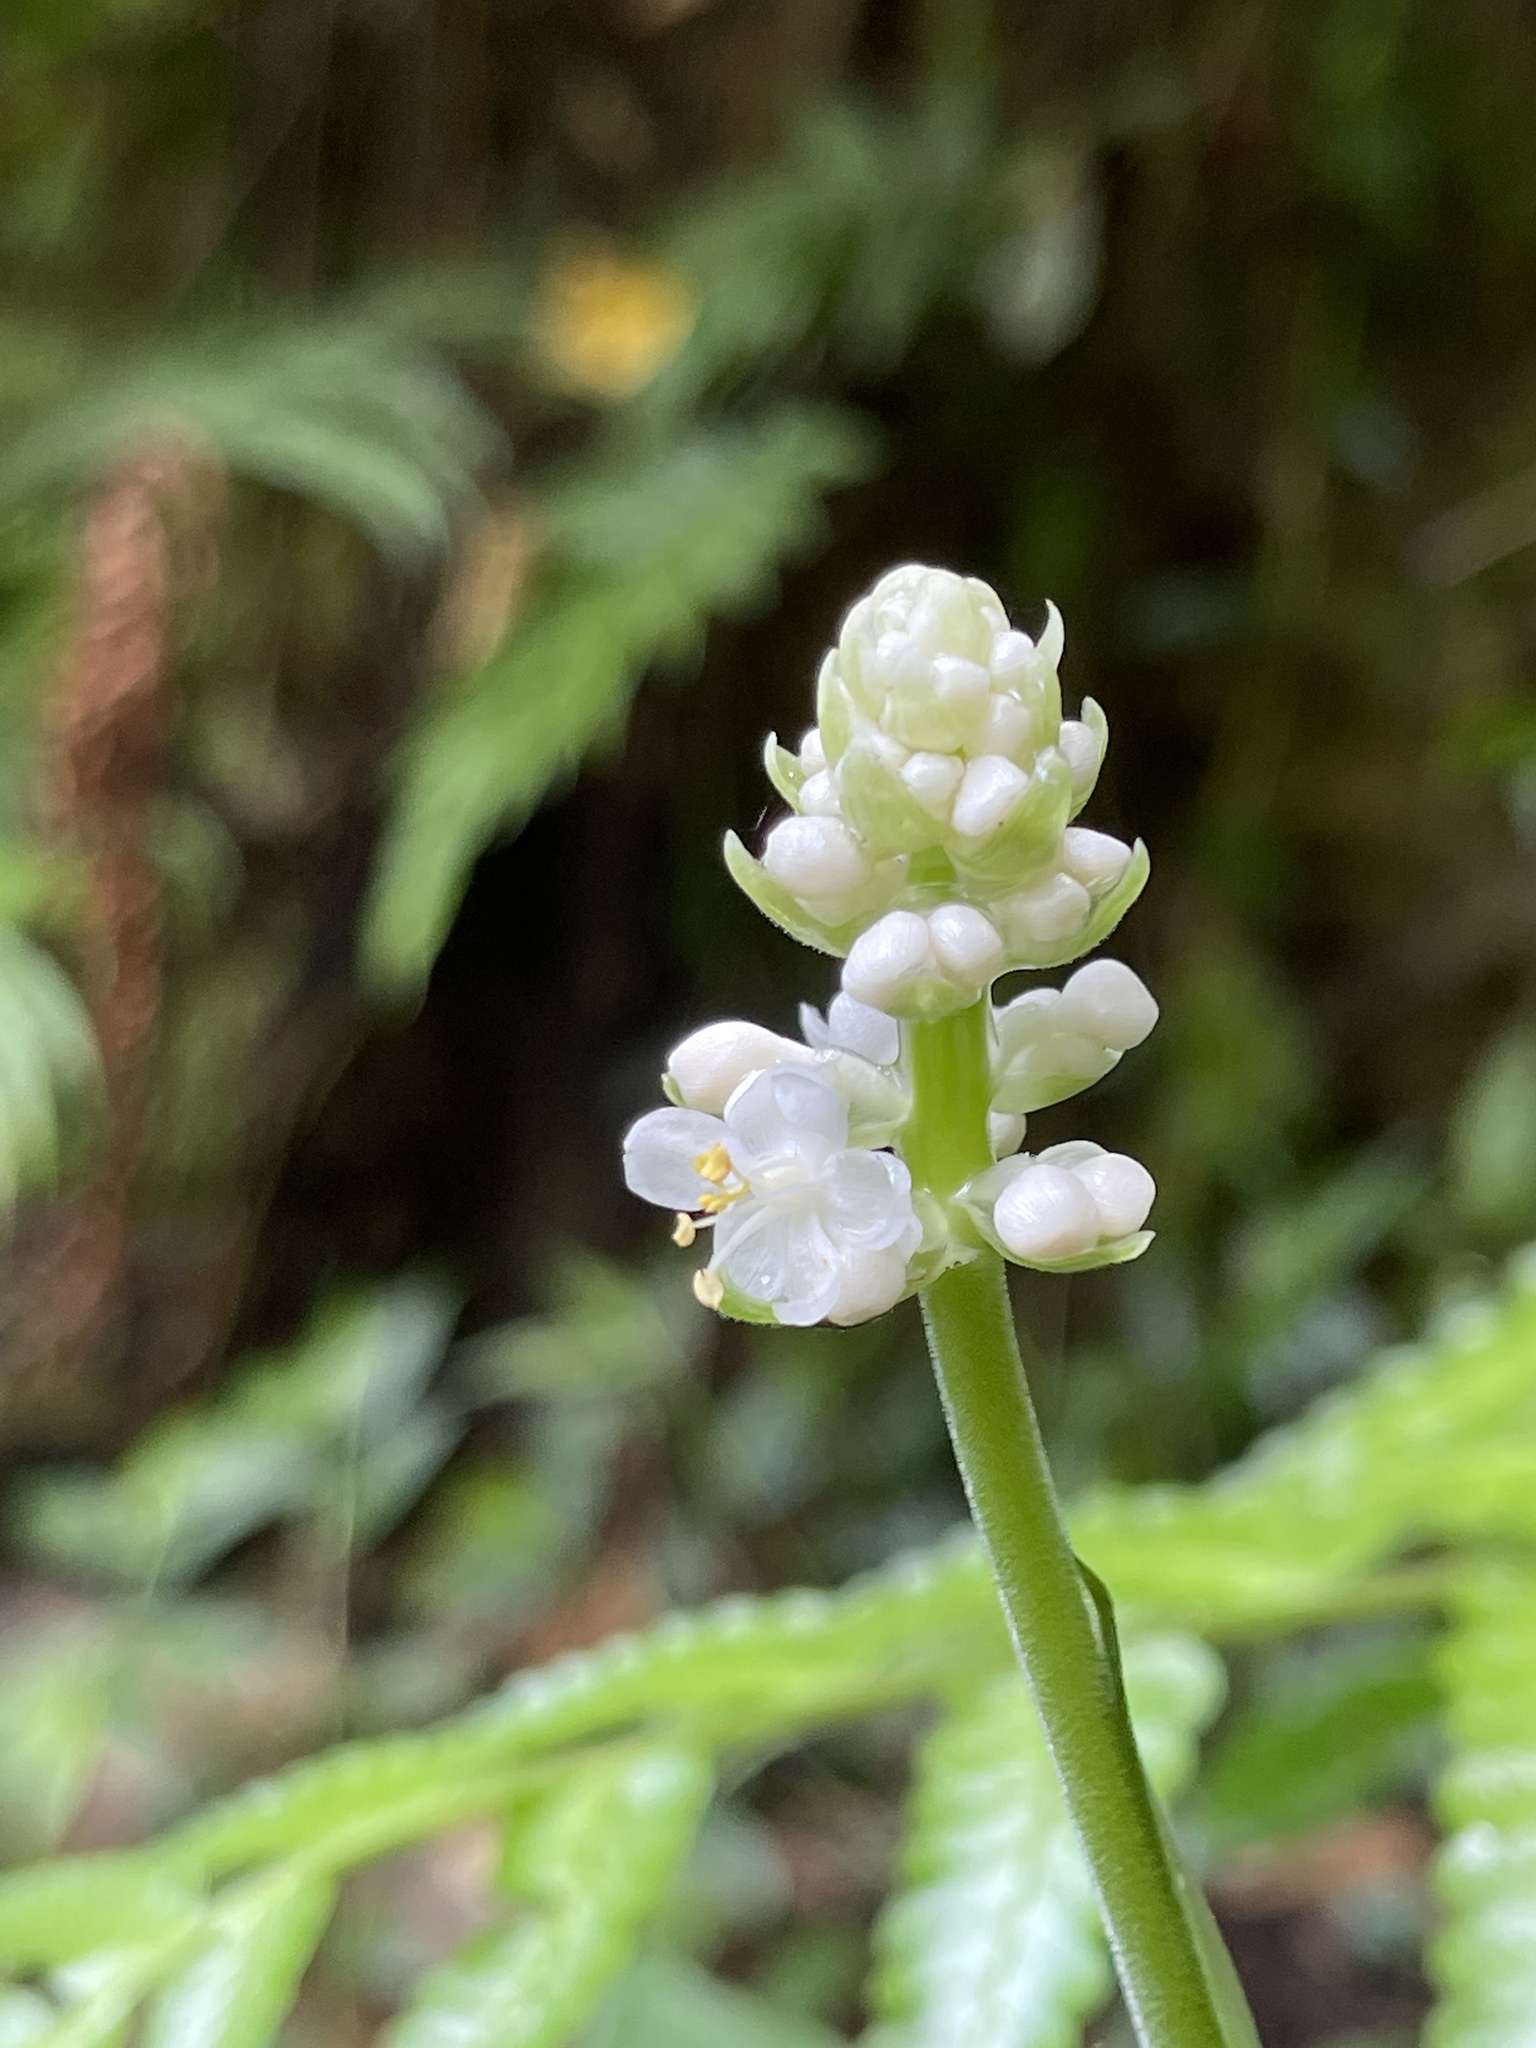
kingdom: Plantae
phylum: Tracheophyta
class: Liliopsida
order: Commelinales
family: Commelinaceae
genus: Pollia
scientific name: Pollia japonica
